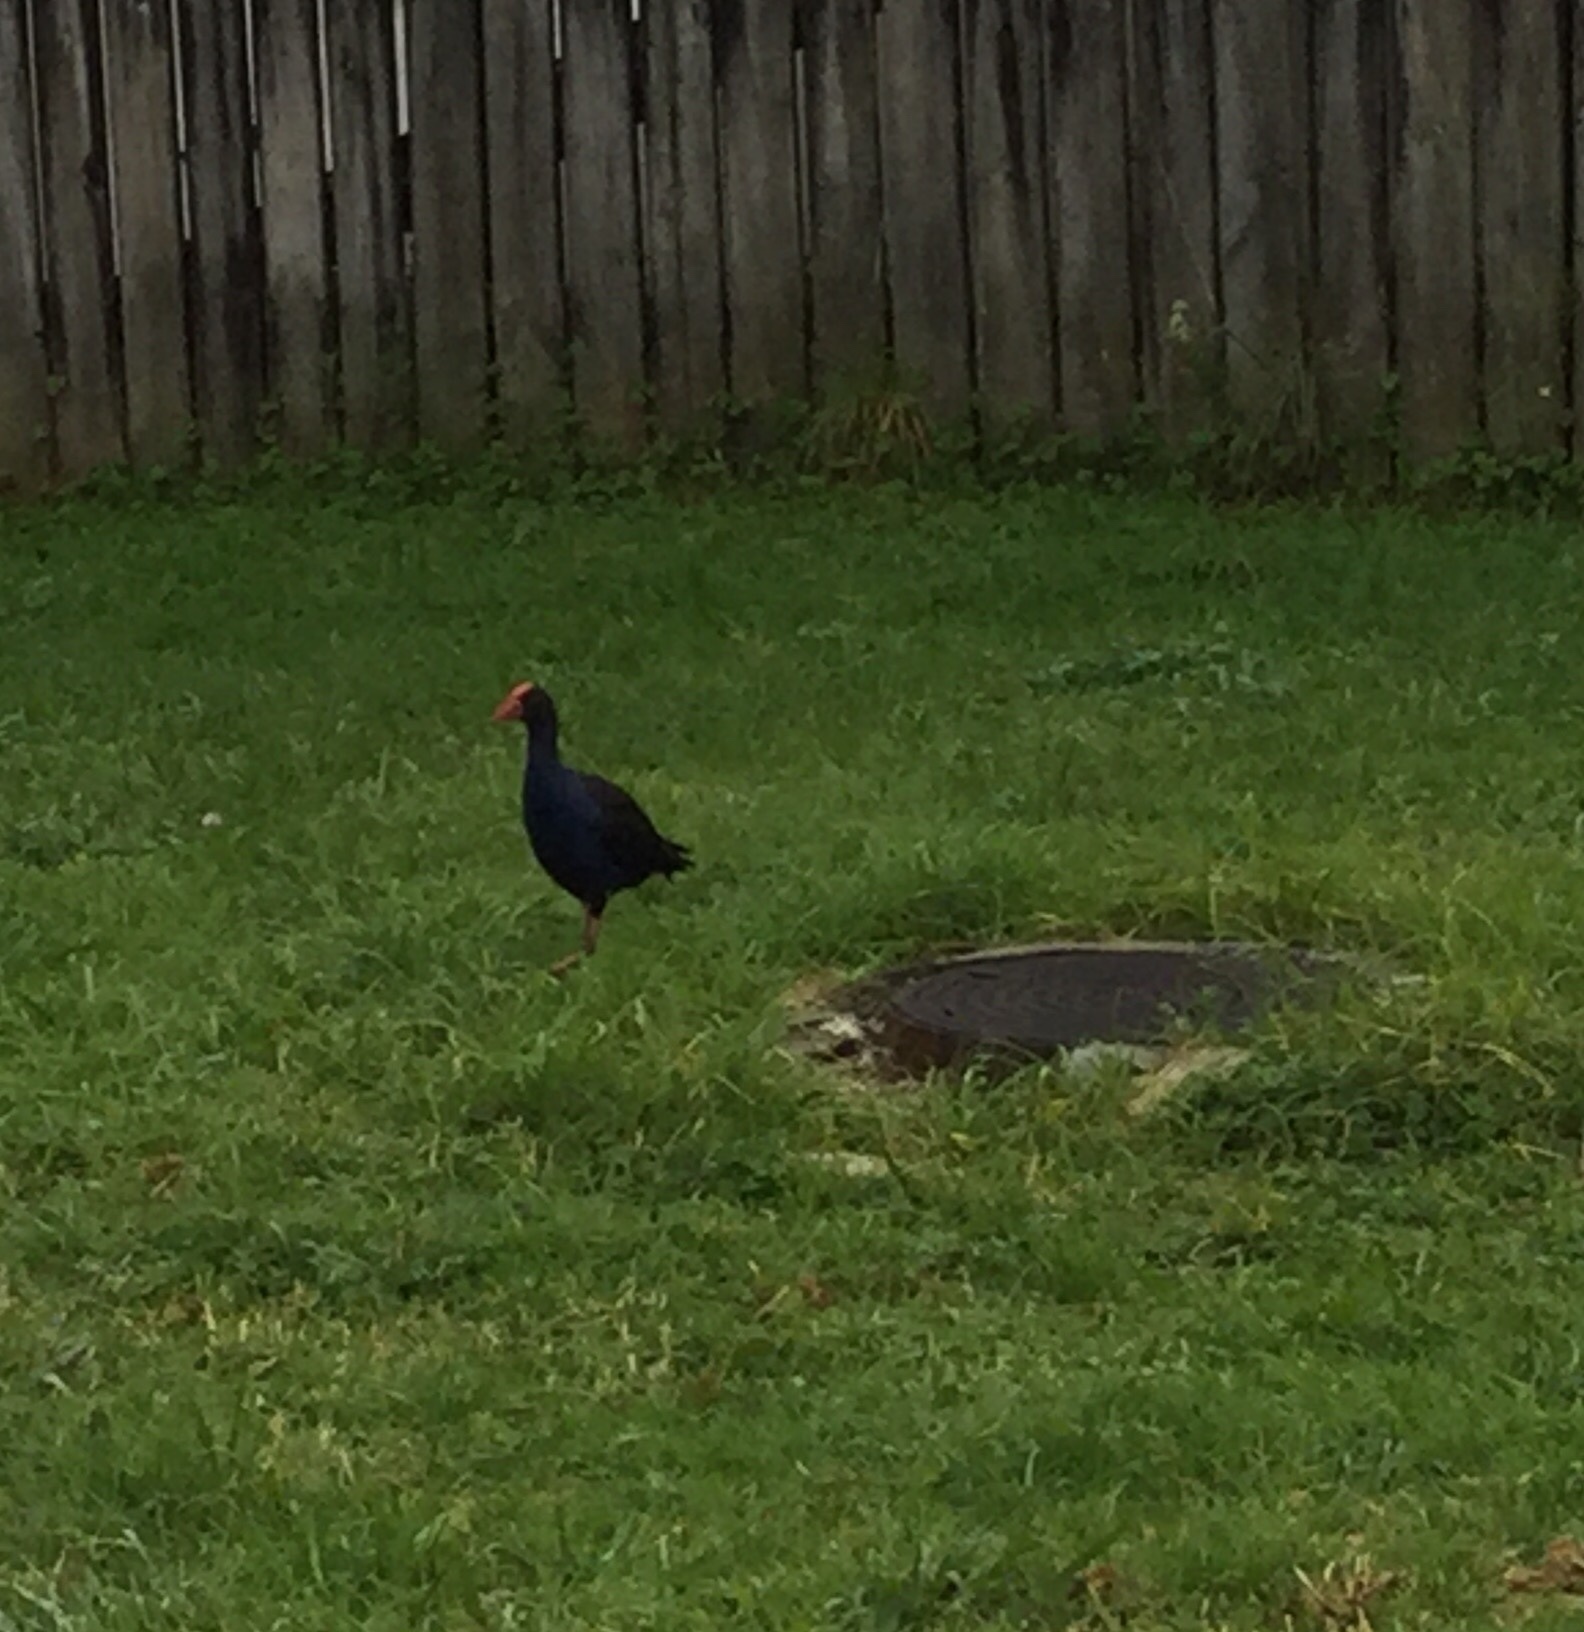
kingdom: Animalia
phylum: Chordata
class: Aves
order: Gruiformes
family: Rallidae
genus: Porphyrio
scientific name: Porphyrio melanotus
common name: Australasian swamphen
